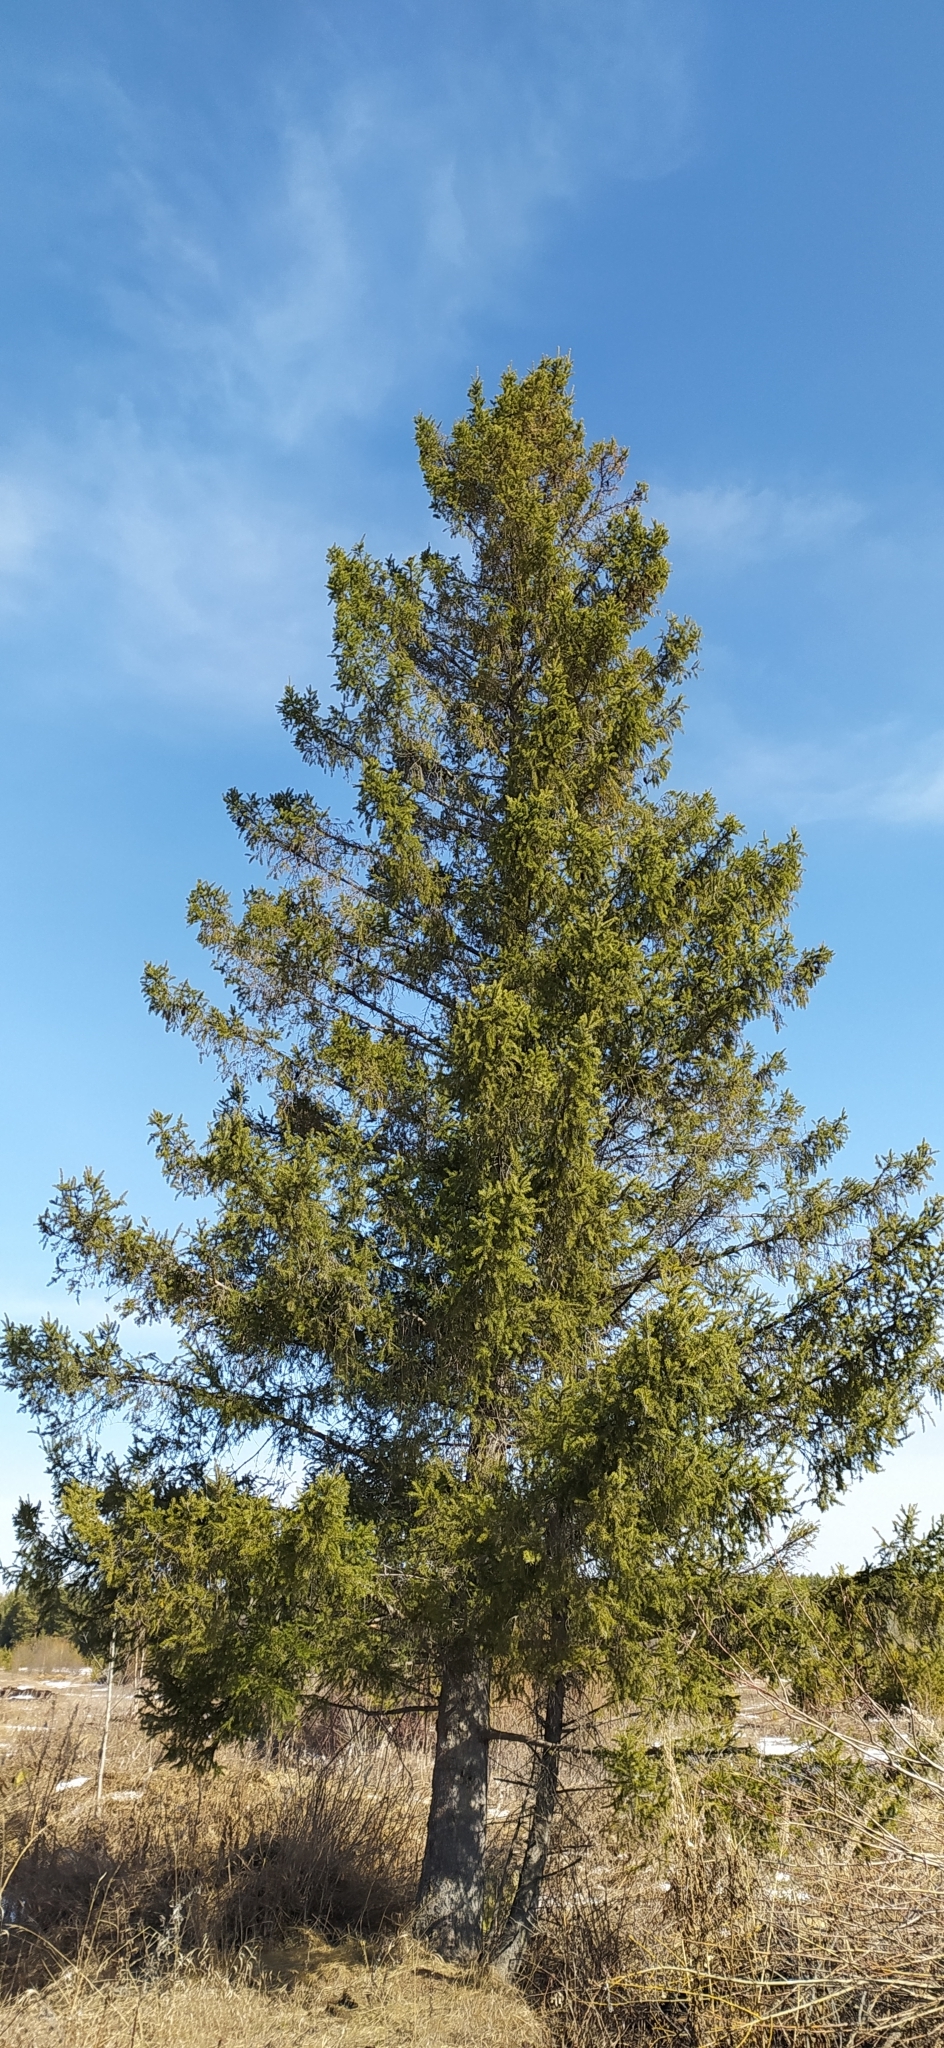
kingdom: Plantae
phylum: Tracheophyta
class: Pinopsida
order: Pinales
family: Pinaceae
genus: Picea
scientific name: Picea obovata
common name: Siberian spruce
